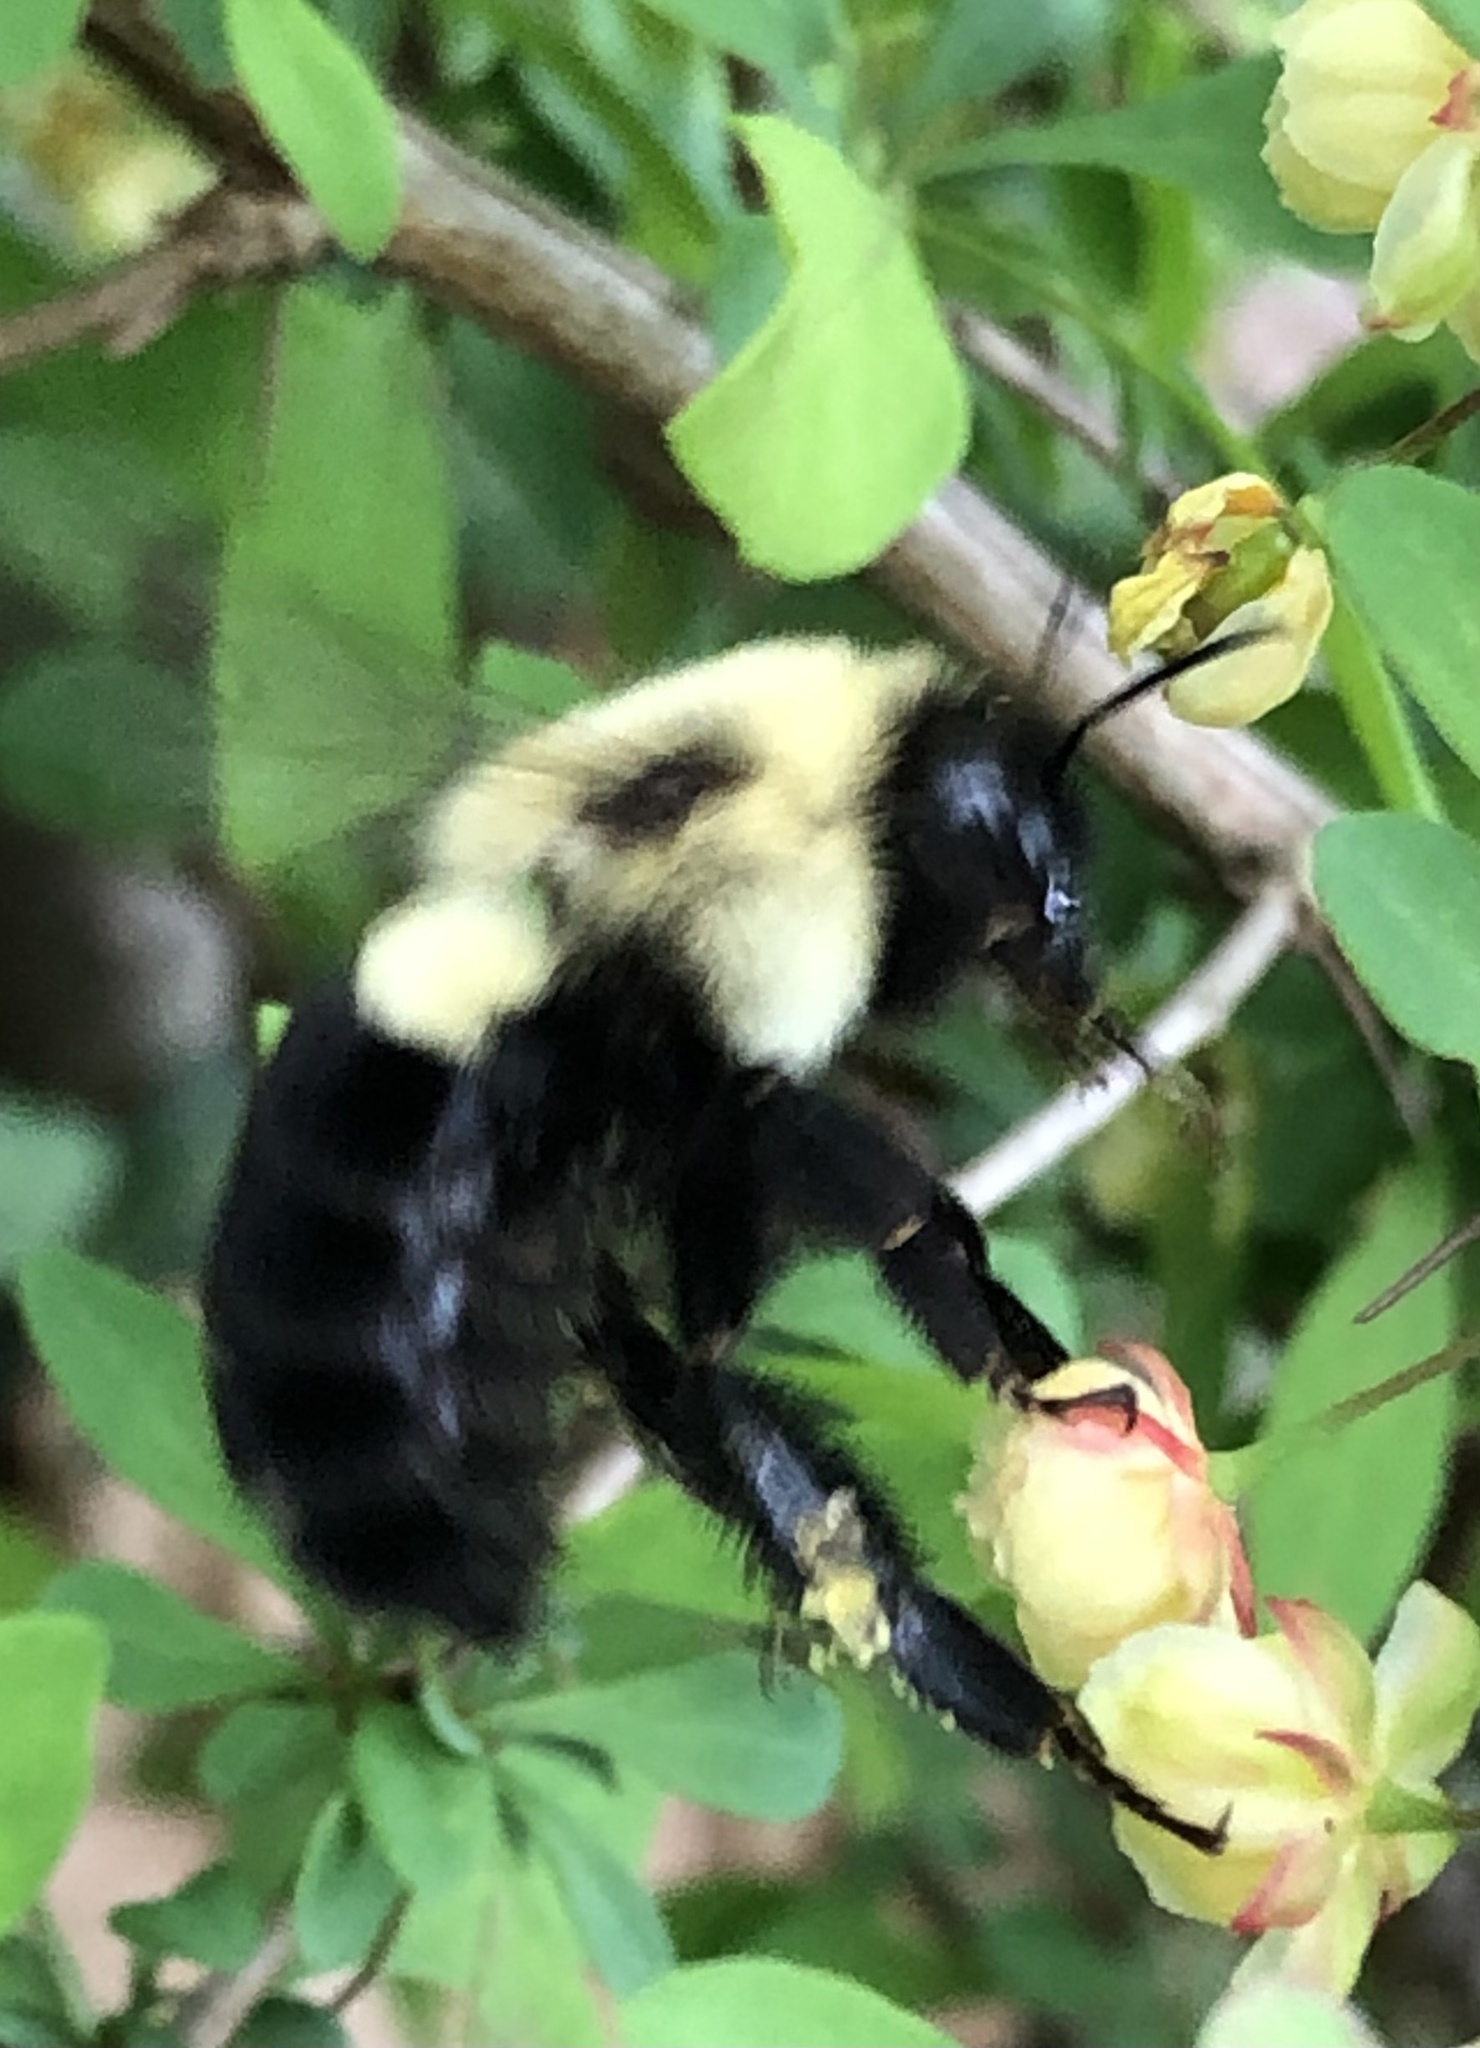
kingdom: Animalia
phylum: Arthropoda
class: Insecta
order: Hymenoptera
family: Apidae
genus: Bombus
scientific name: Bombus impatiens
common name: Common eastern bumble bee
